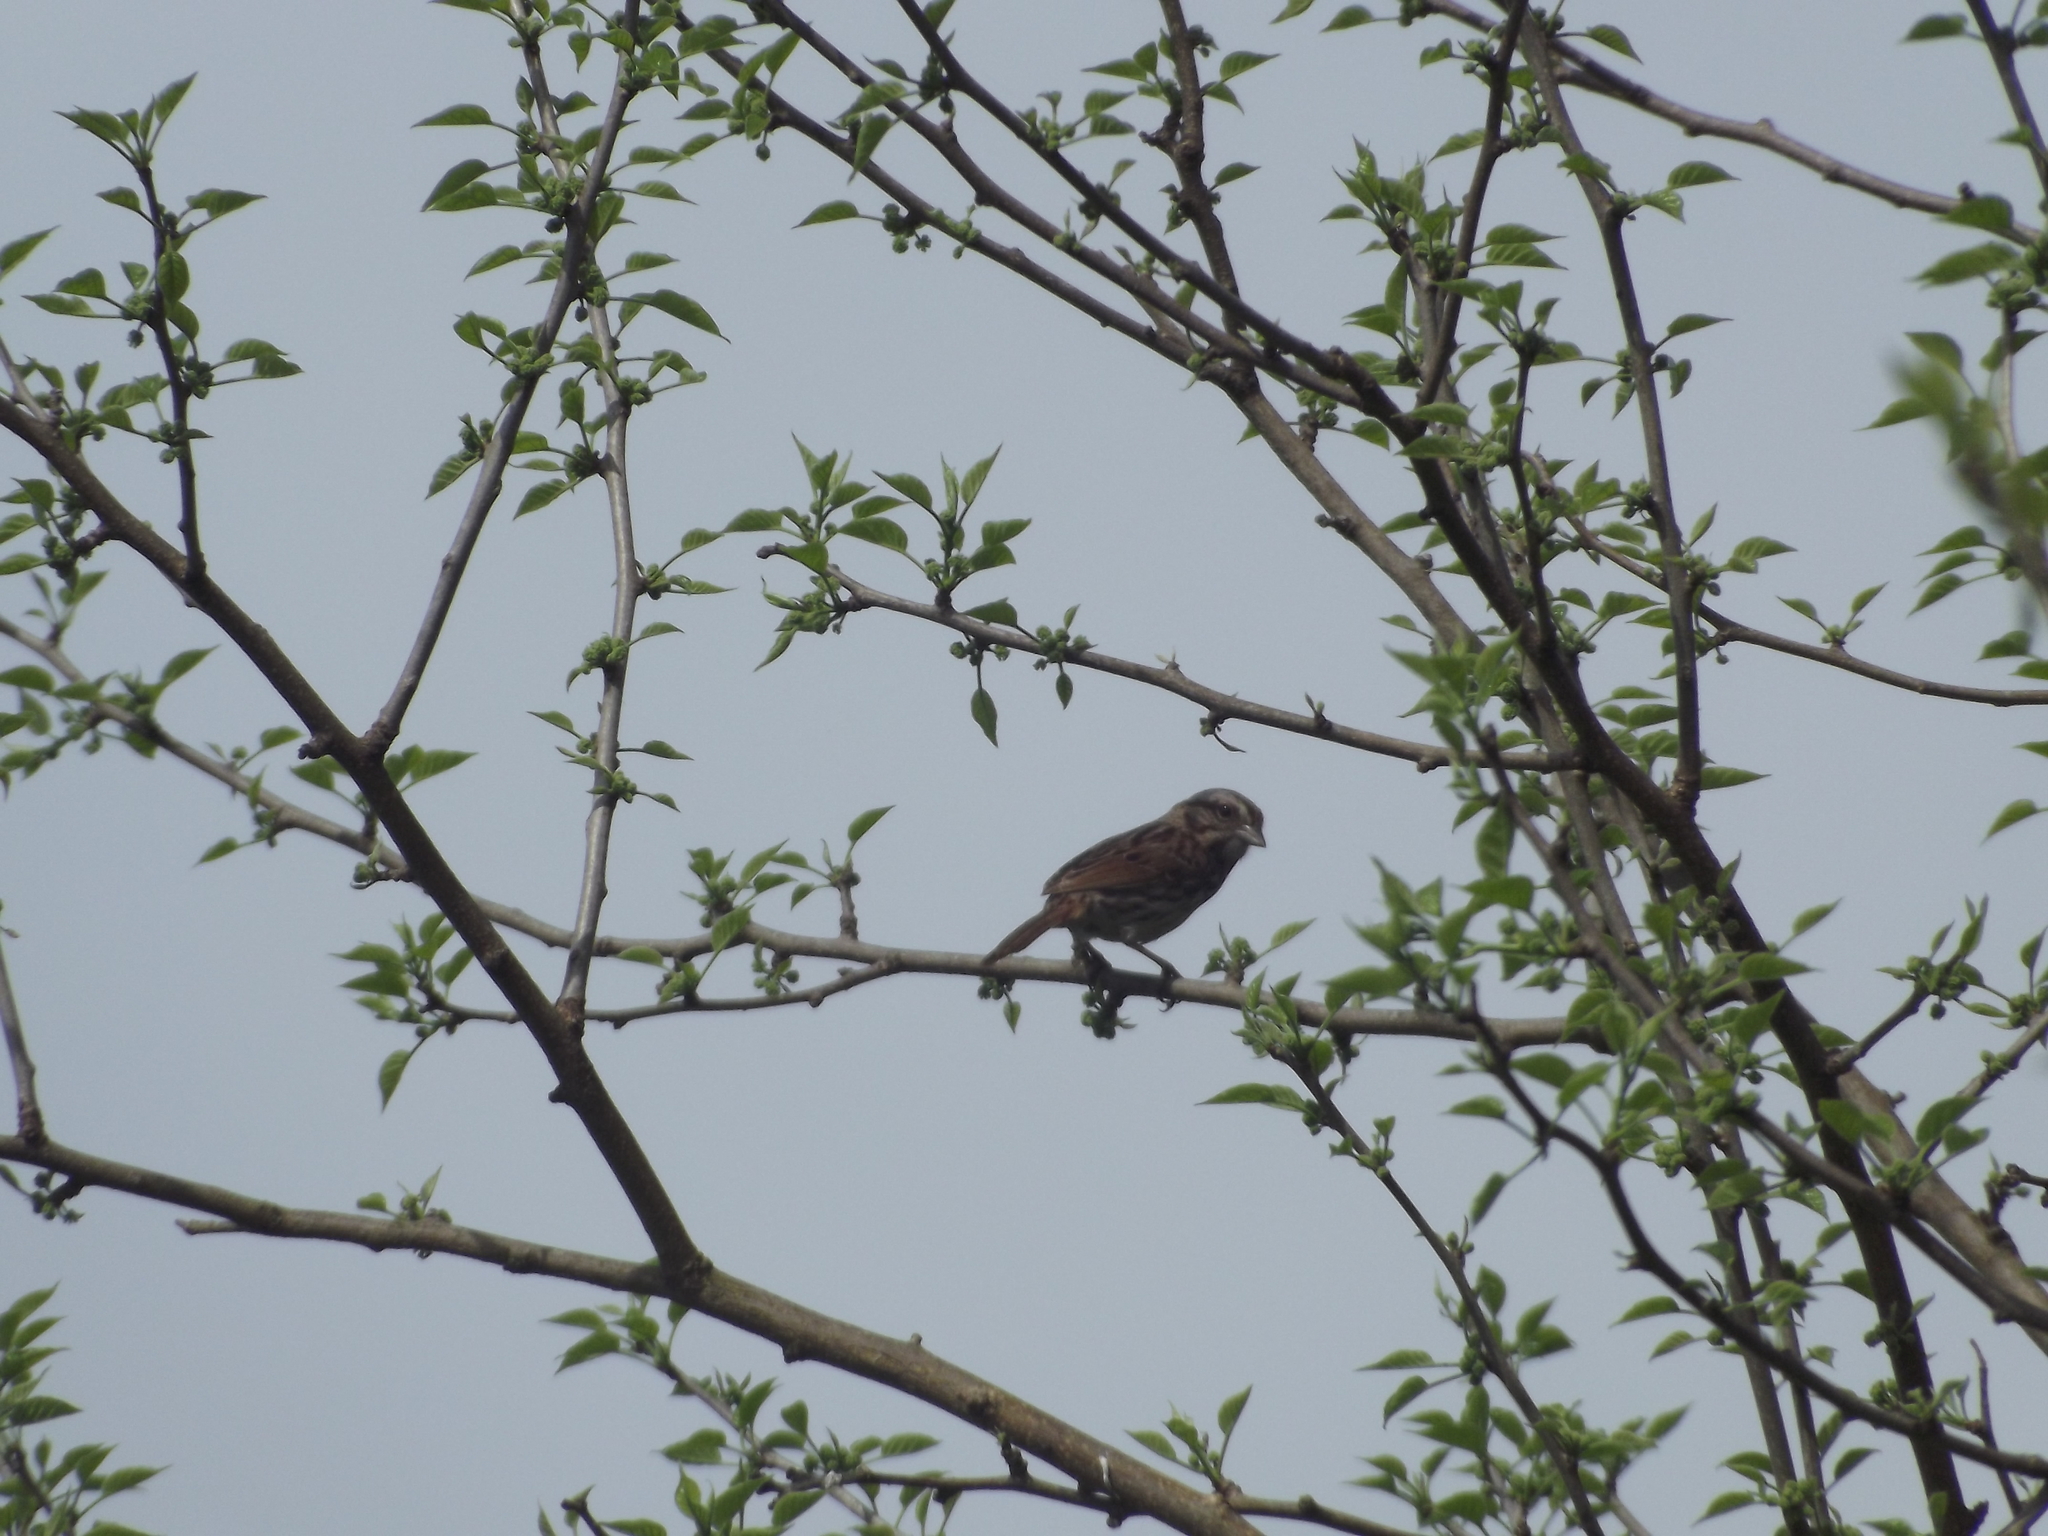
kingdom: Animalia
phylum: Chordata
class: Aves
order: Passeriformes
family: Passerellidae
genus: Melospiza
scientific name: Melospiza melodia
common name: Song sparrow
